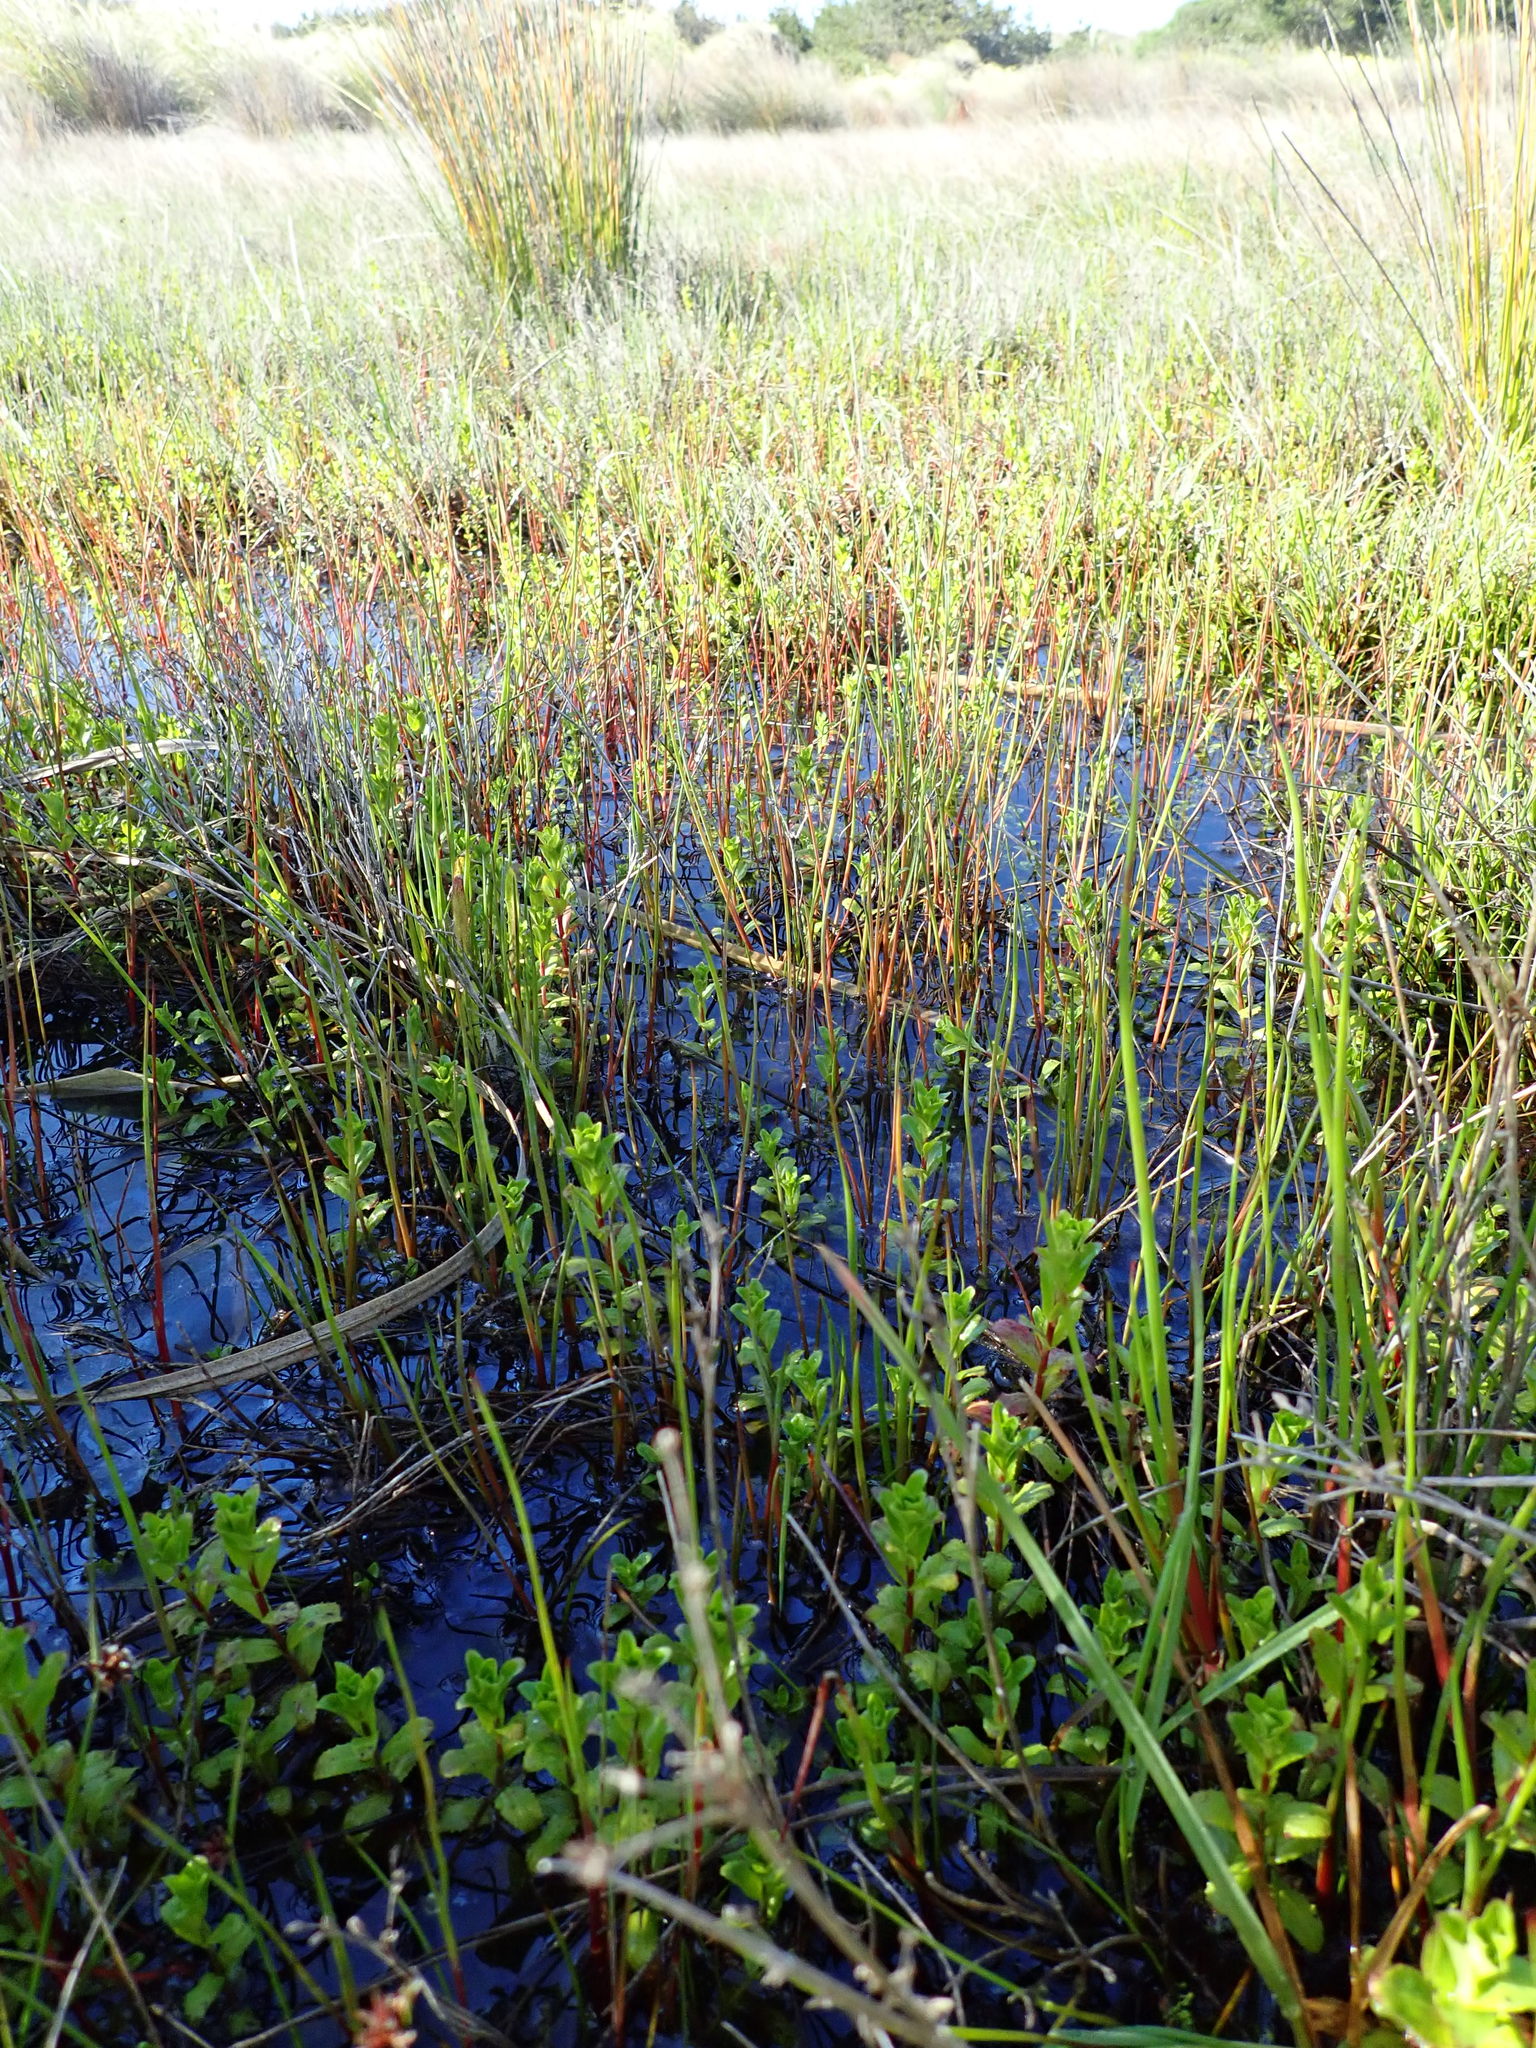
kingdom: Plantae
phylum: Tracheophyta
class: Magnoliopsida
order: Myrtales
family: Onagraceae
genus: Epilobium
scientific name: Epilobium billardiereanum
